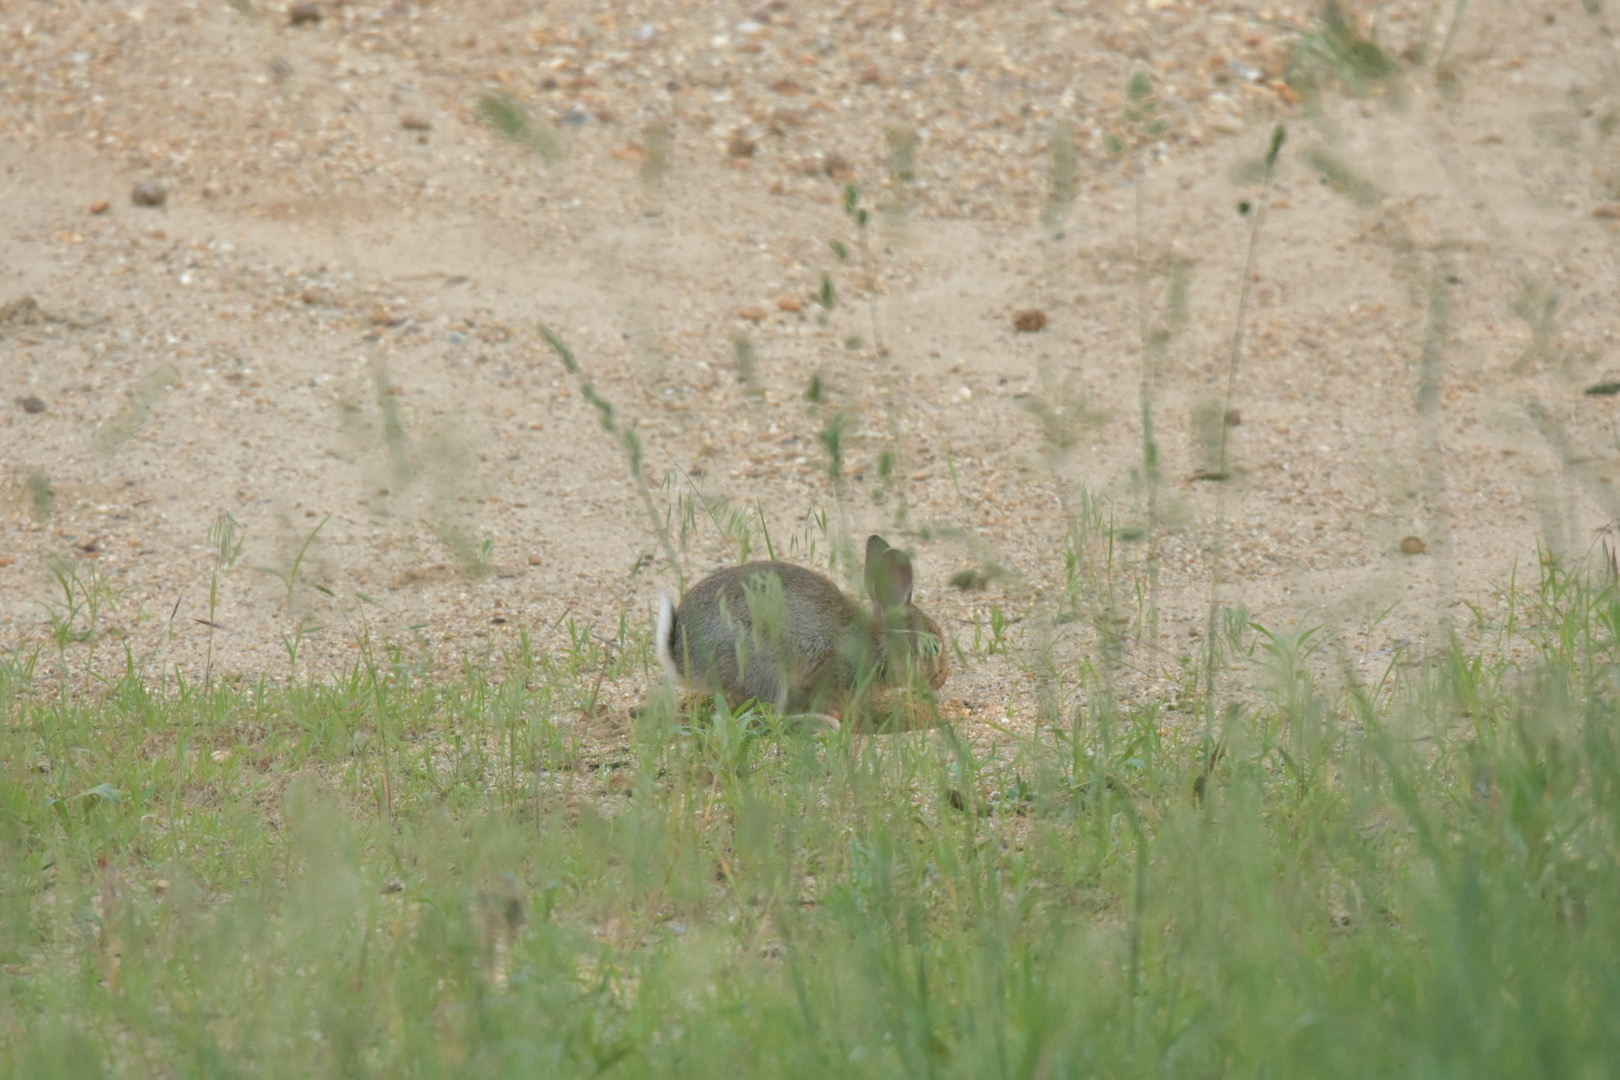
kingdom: Animalia
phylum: Chordata
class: Mammalia
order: Lagomorpha
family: Leporidae
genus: Oryctolagus
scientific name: Oryctolagus cuniculus
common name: European rabbit
